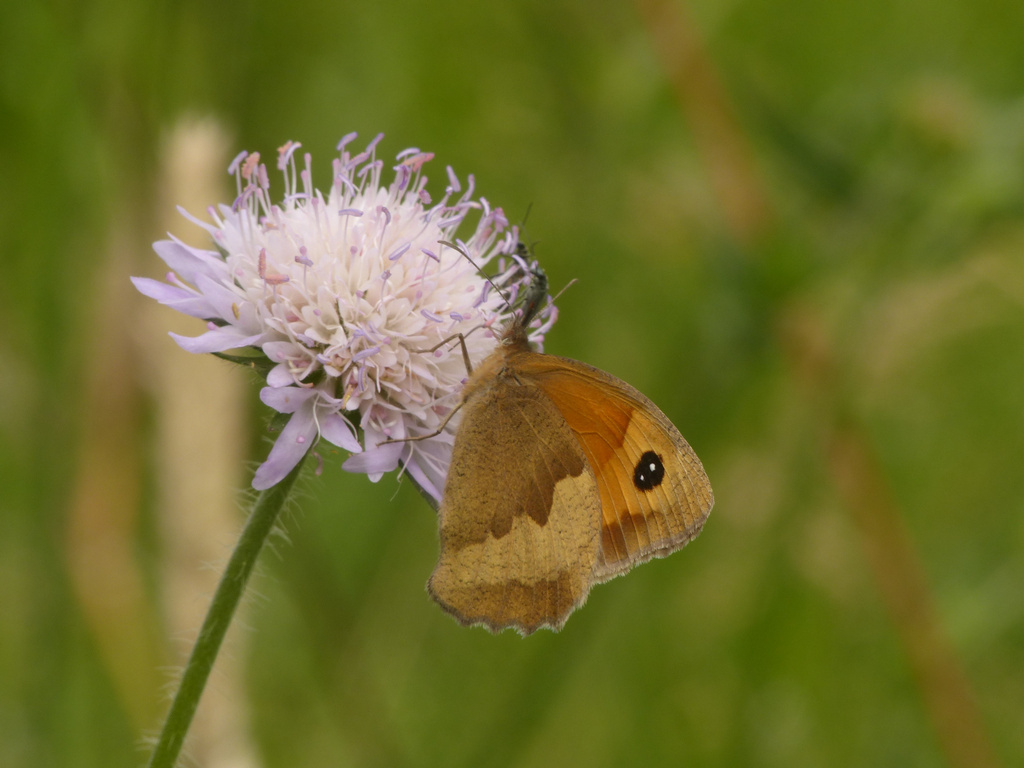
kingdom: Animalia
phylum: Arthropoda
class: Insecta
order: Lepidoptera
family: Nymphalidae
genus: Maniola
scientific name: Maniola jurtina
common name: Meadow brown
